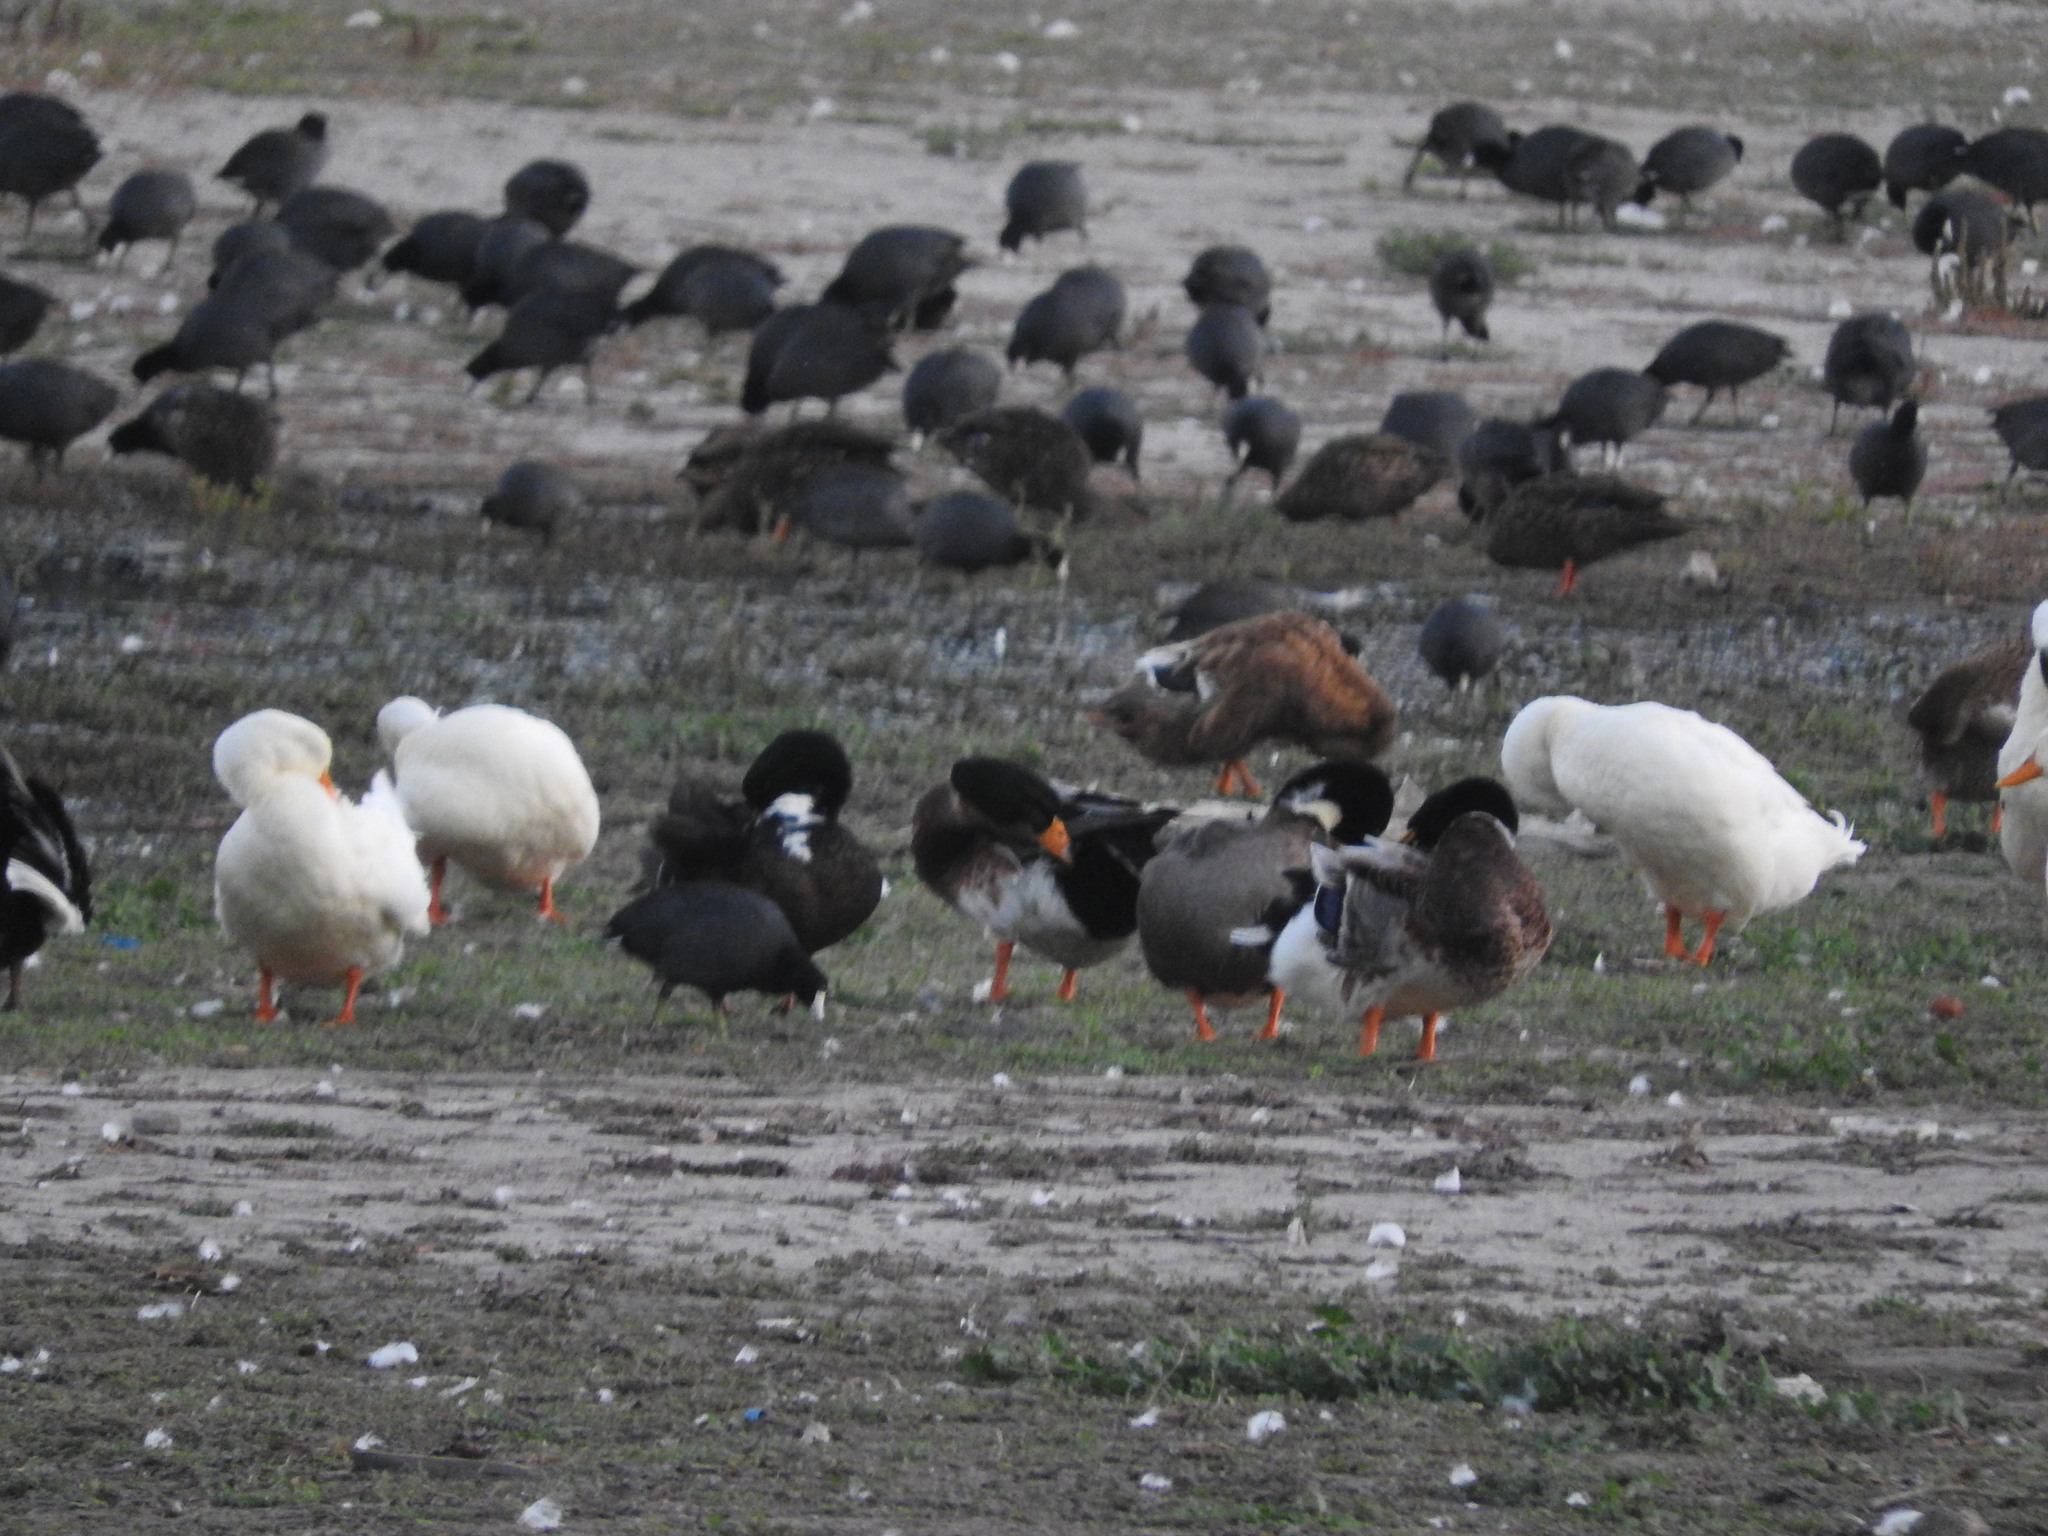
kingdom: Animalia
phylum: Chordata
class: Aves
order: Anseriformes
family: Anatidae
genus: Anas
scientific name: Anas platyrhynchos
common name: Mallard
